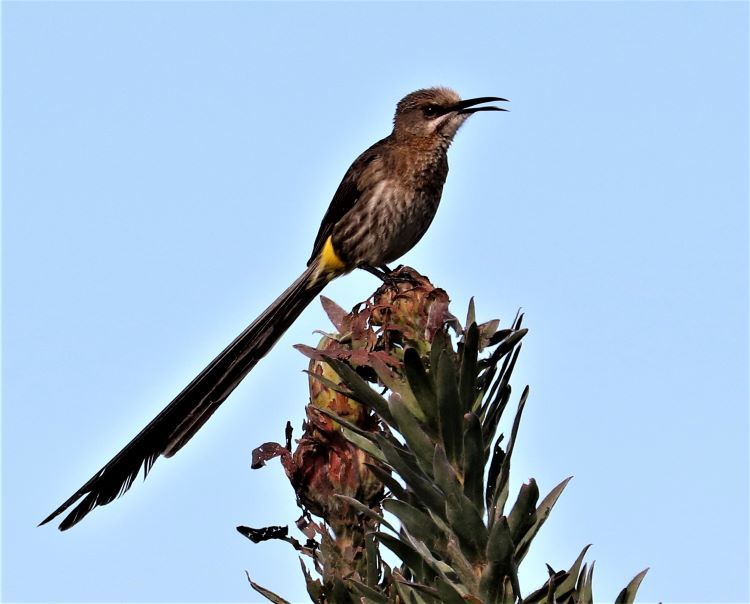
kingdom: Animalia
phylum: Chordata
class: Aves
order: Passeriformes
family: Promeropidae
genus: Promerops
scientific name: Promerops cafer
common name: Cape sugarbird
